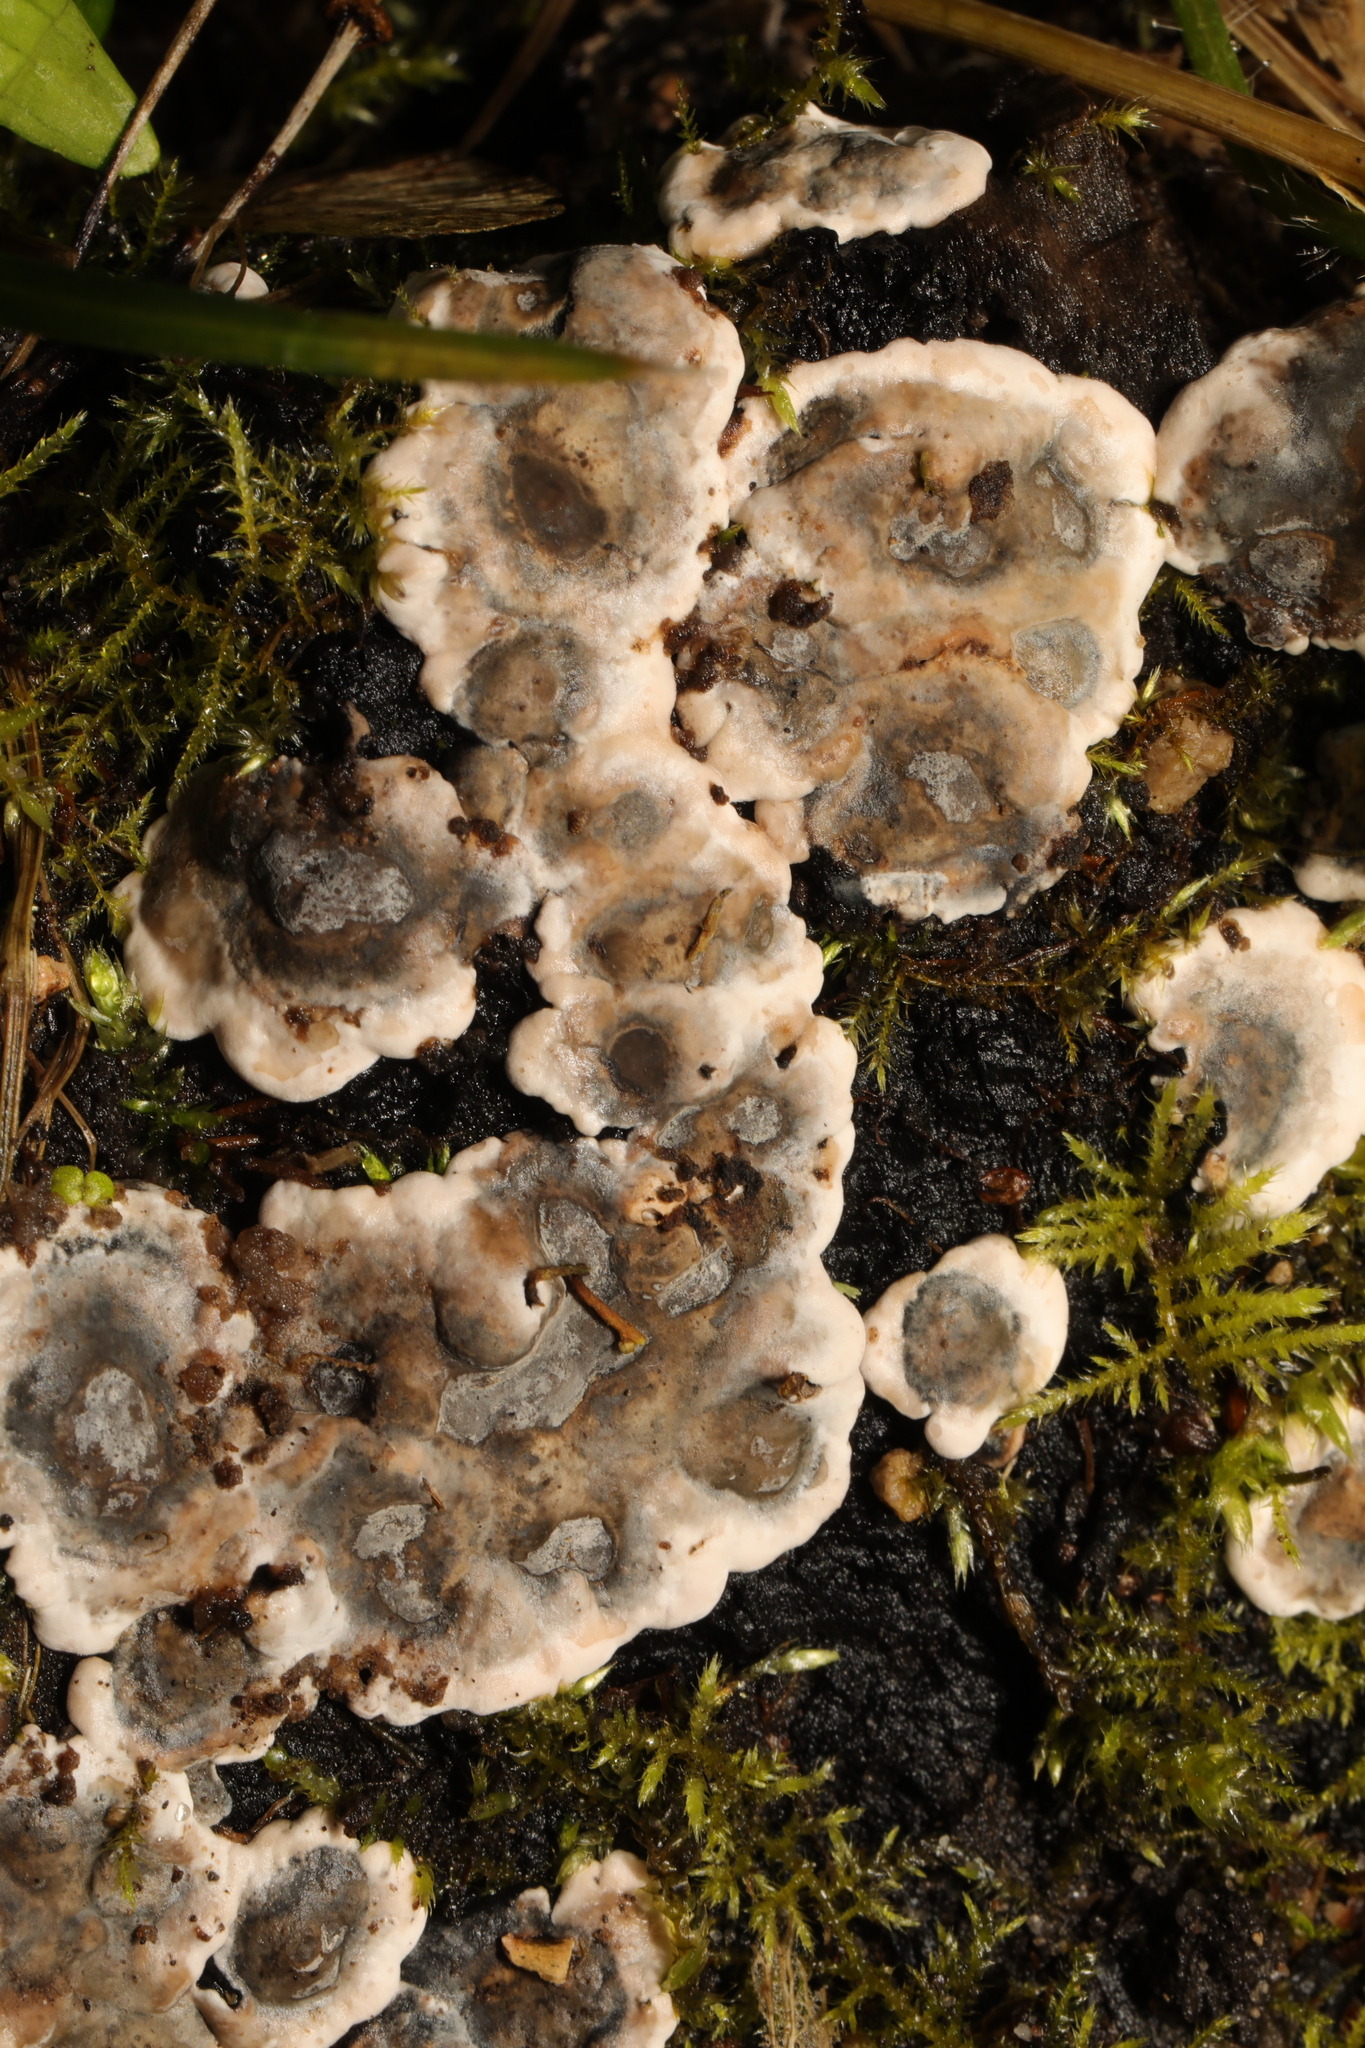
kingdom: Fungi
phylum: Basidiomycota
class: Agaricomycetes
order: Polyporales
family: Phanerochaetaceae
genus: Bjerkandera
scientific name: Bjerkandera adusta
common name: Smoky bracket
